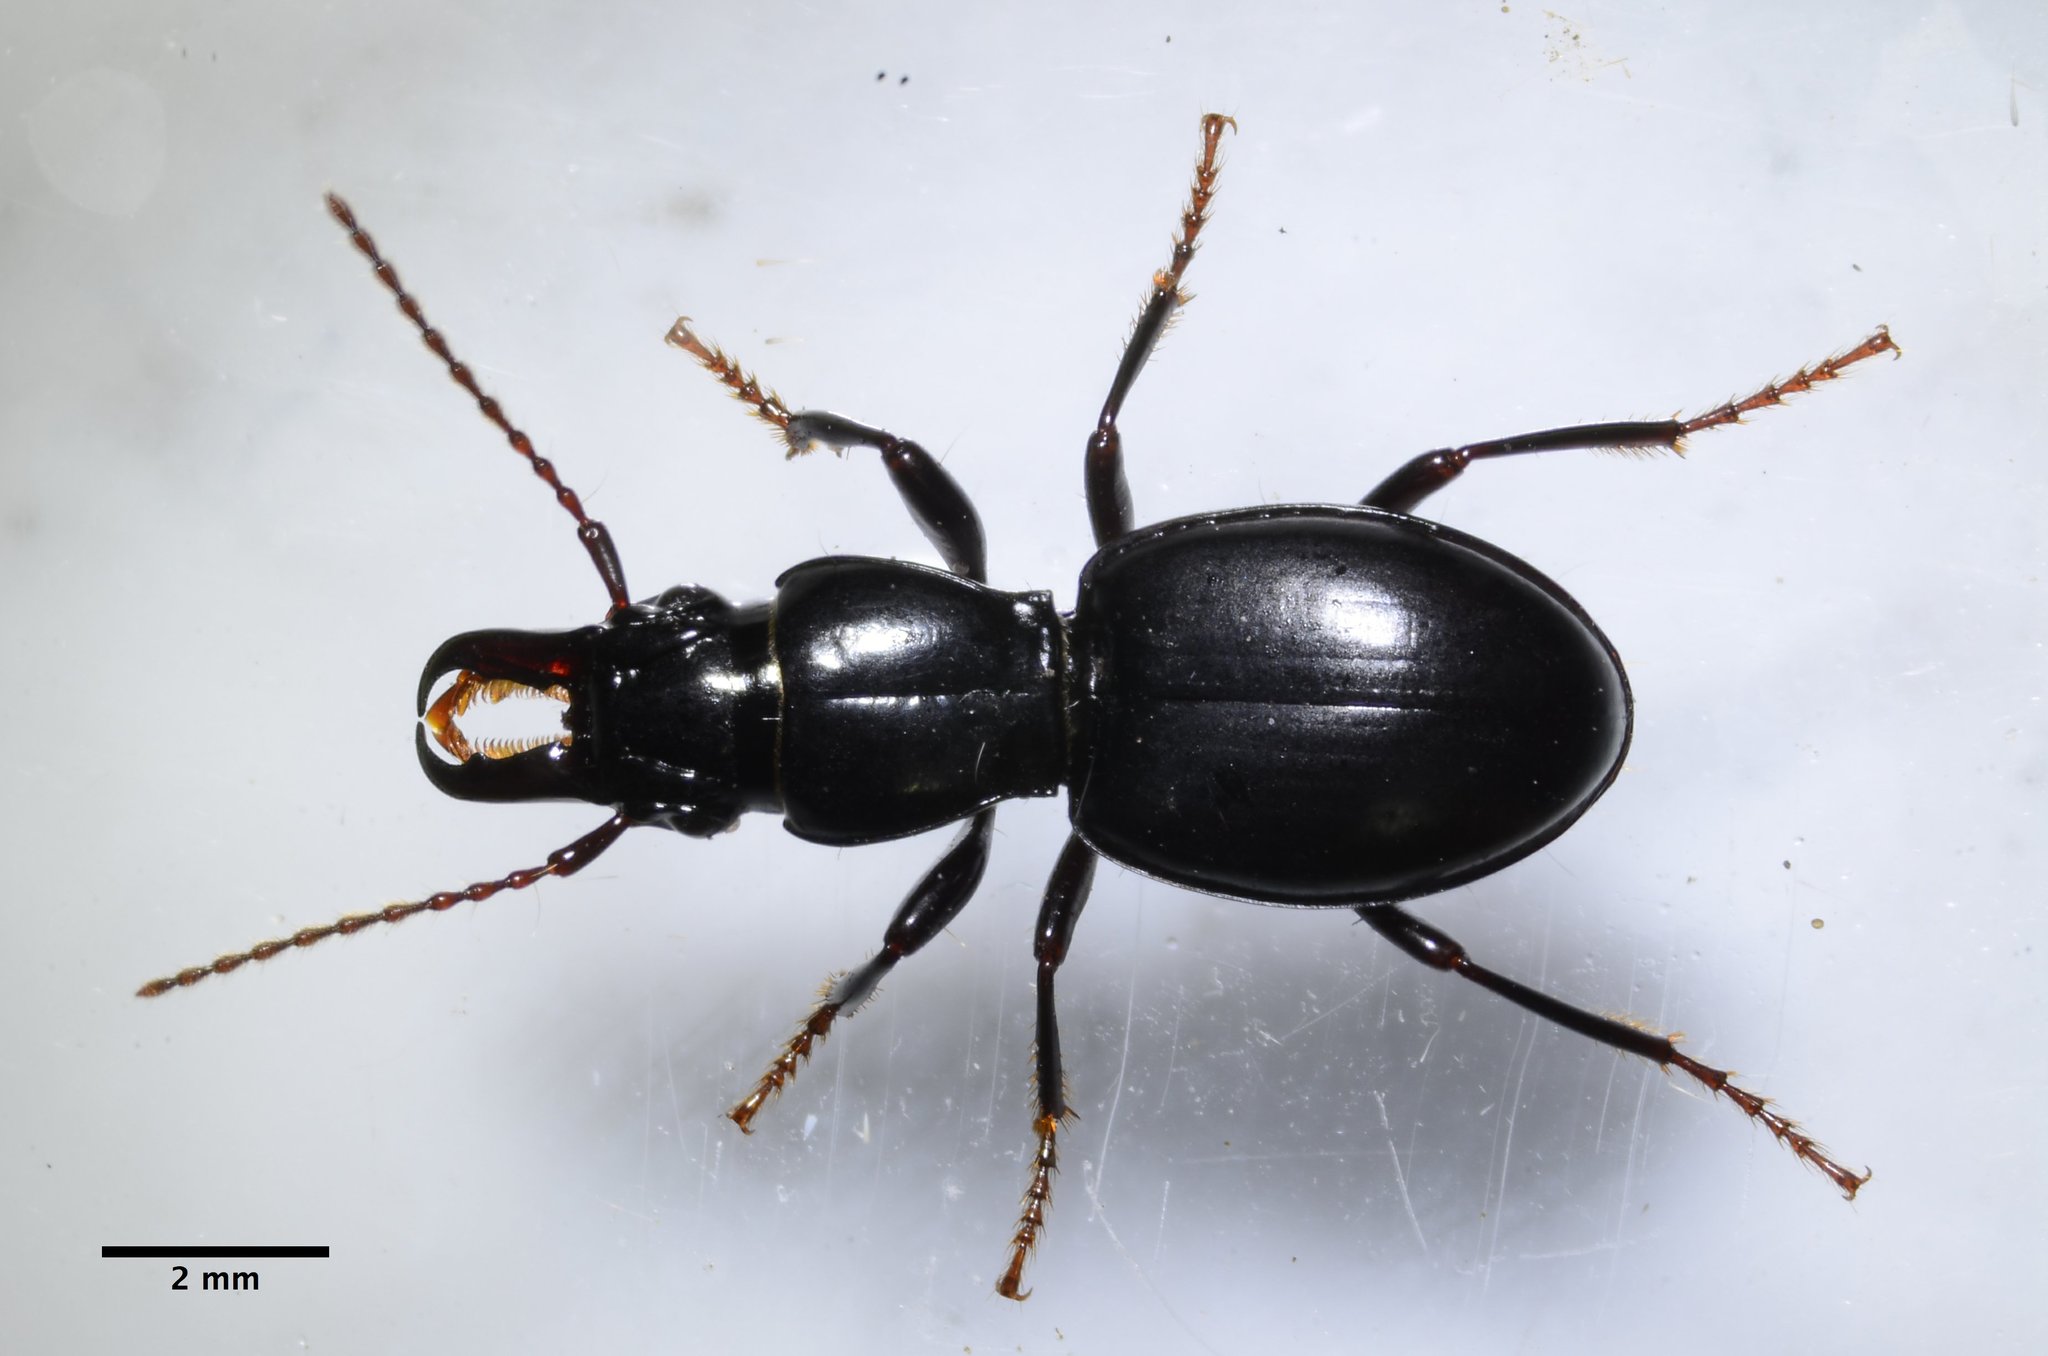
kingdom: Animalia
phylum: Arthropoda
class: Insecta
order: Coleoptera
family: Carabidae
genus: Promecognathus
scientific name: Promecognathus crassus
